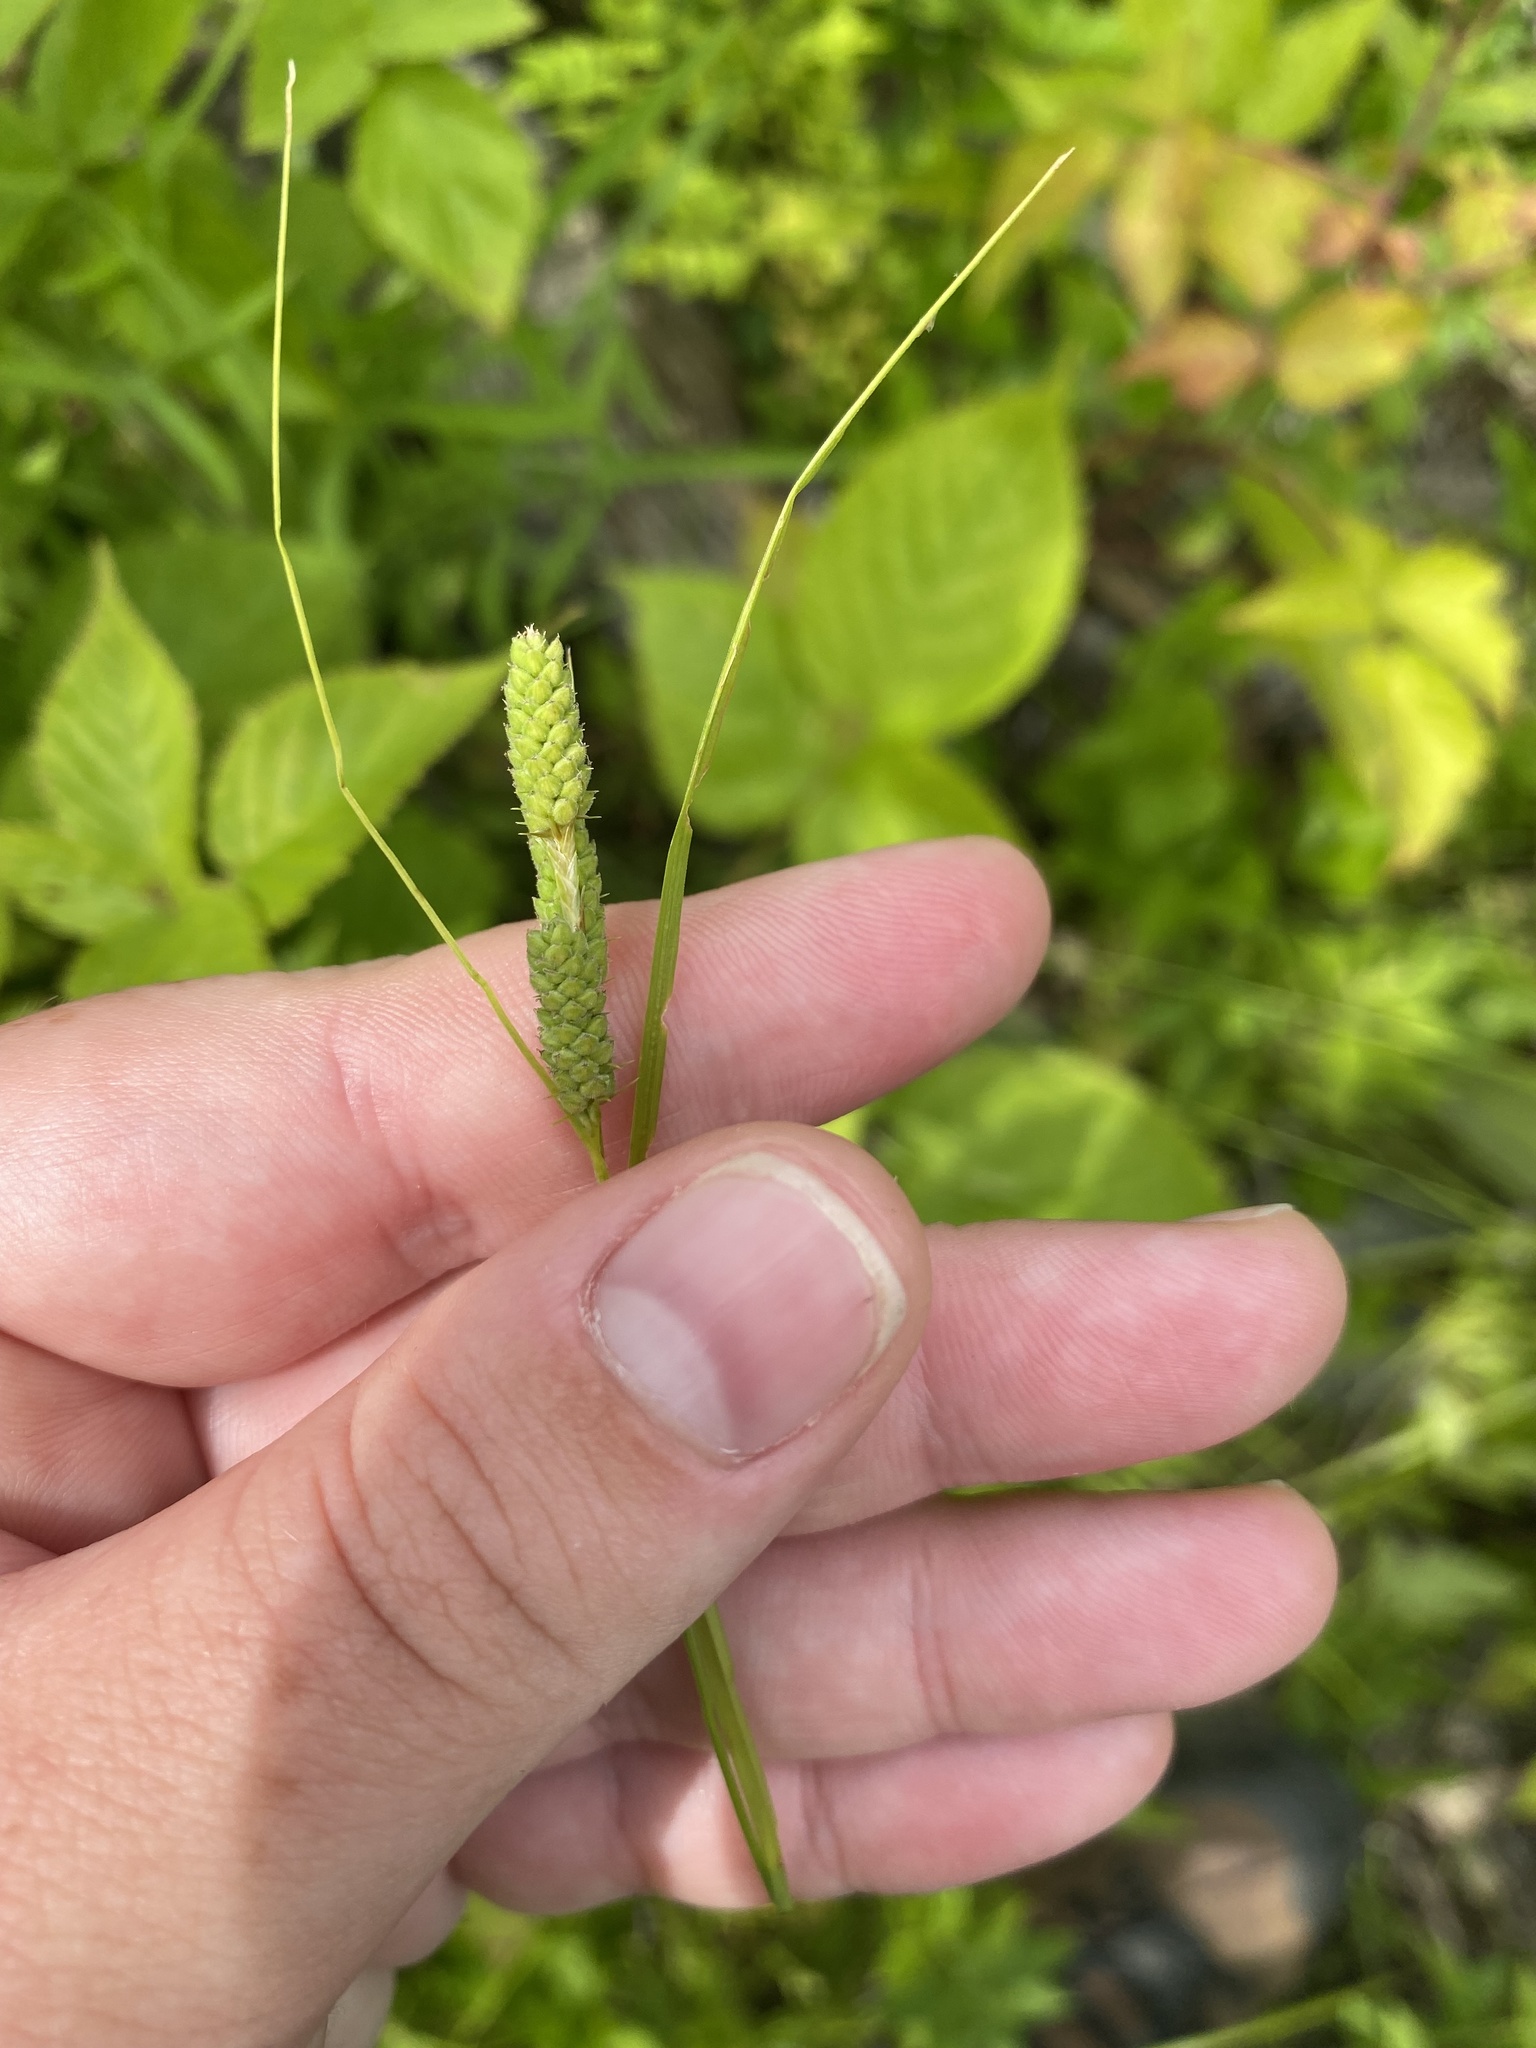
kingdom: Plantae
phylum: Tracheophyta
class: Liliopsida
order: Poales
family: Cyperaceae
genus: Carex
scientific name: Carex swanii
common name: Downy green sedge
